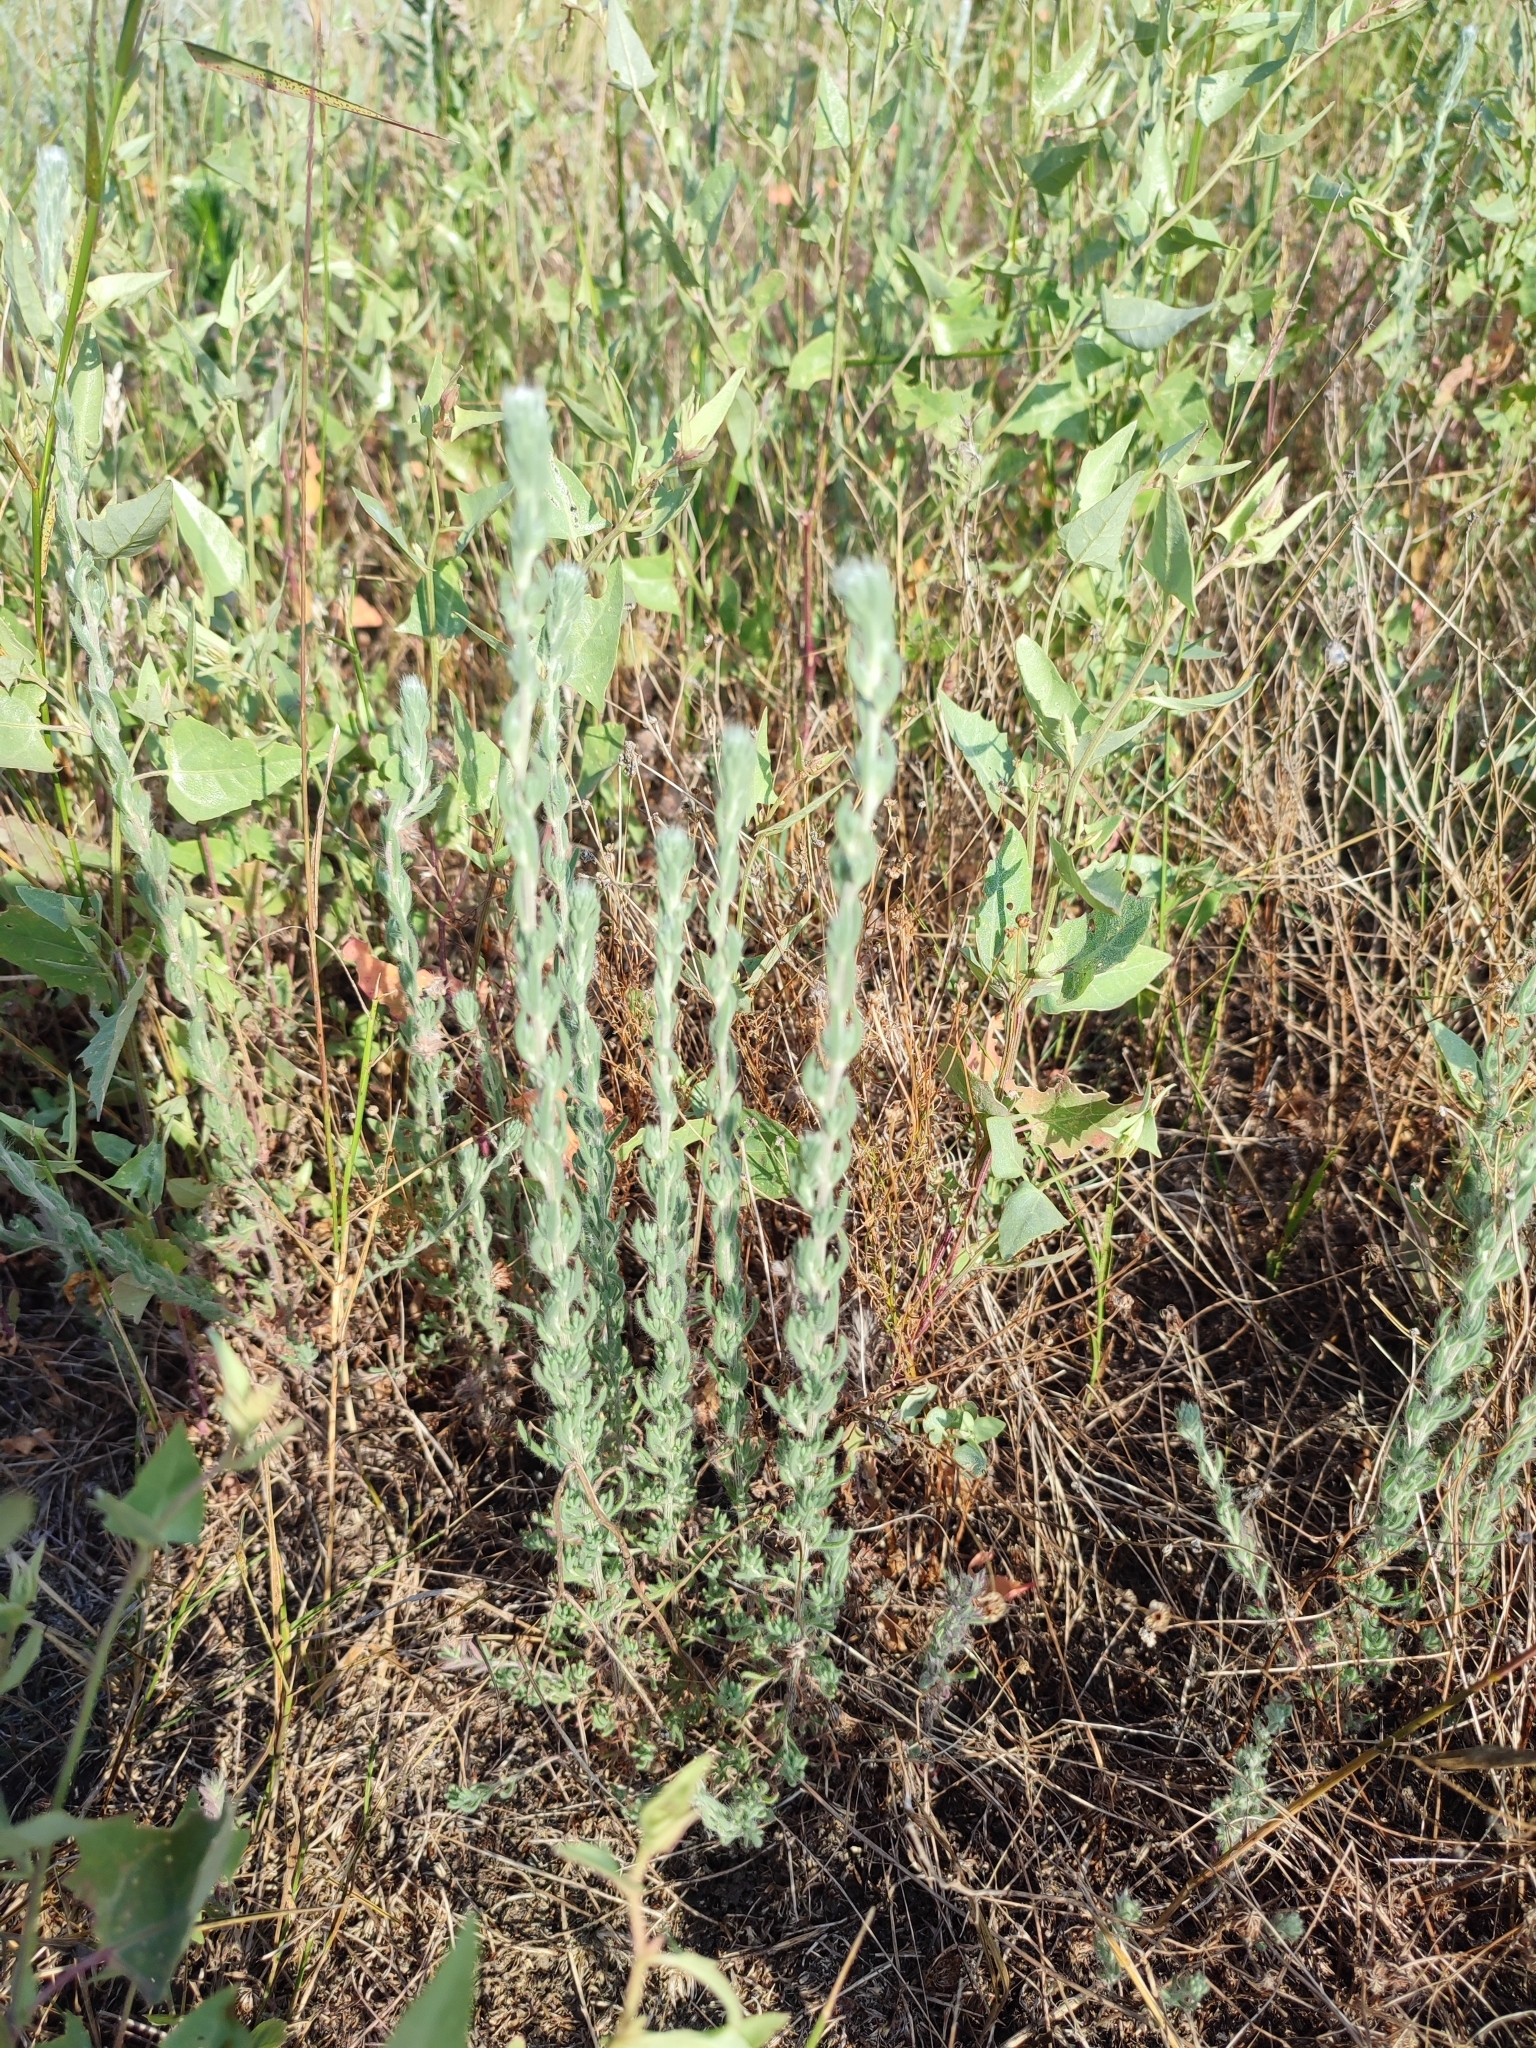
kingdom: Plantae
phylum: Tracheophyta
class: Magnoliopsida
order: Caryophyllales
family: Amaranthaceae
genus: Sedobassia
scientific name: Sedobassia sedoides
